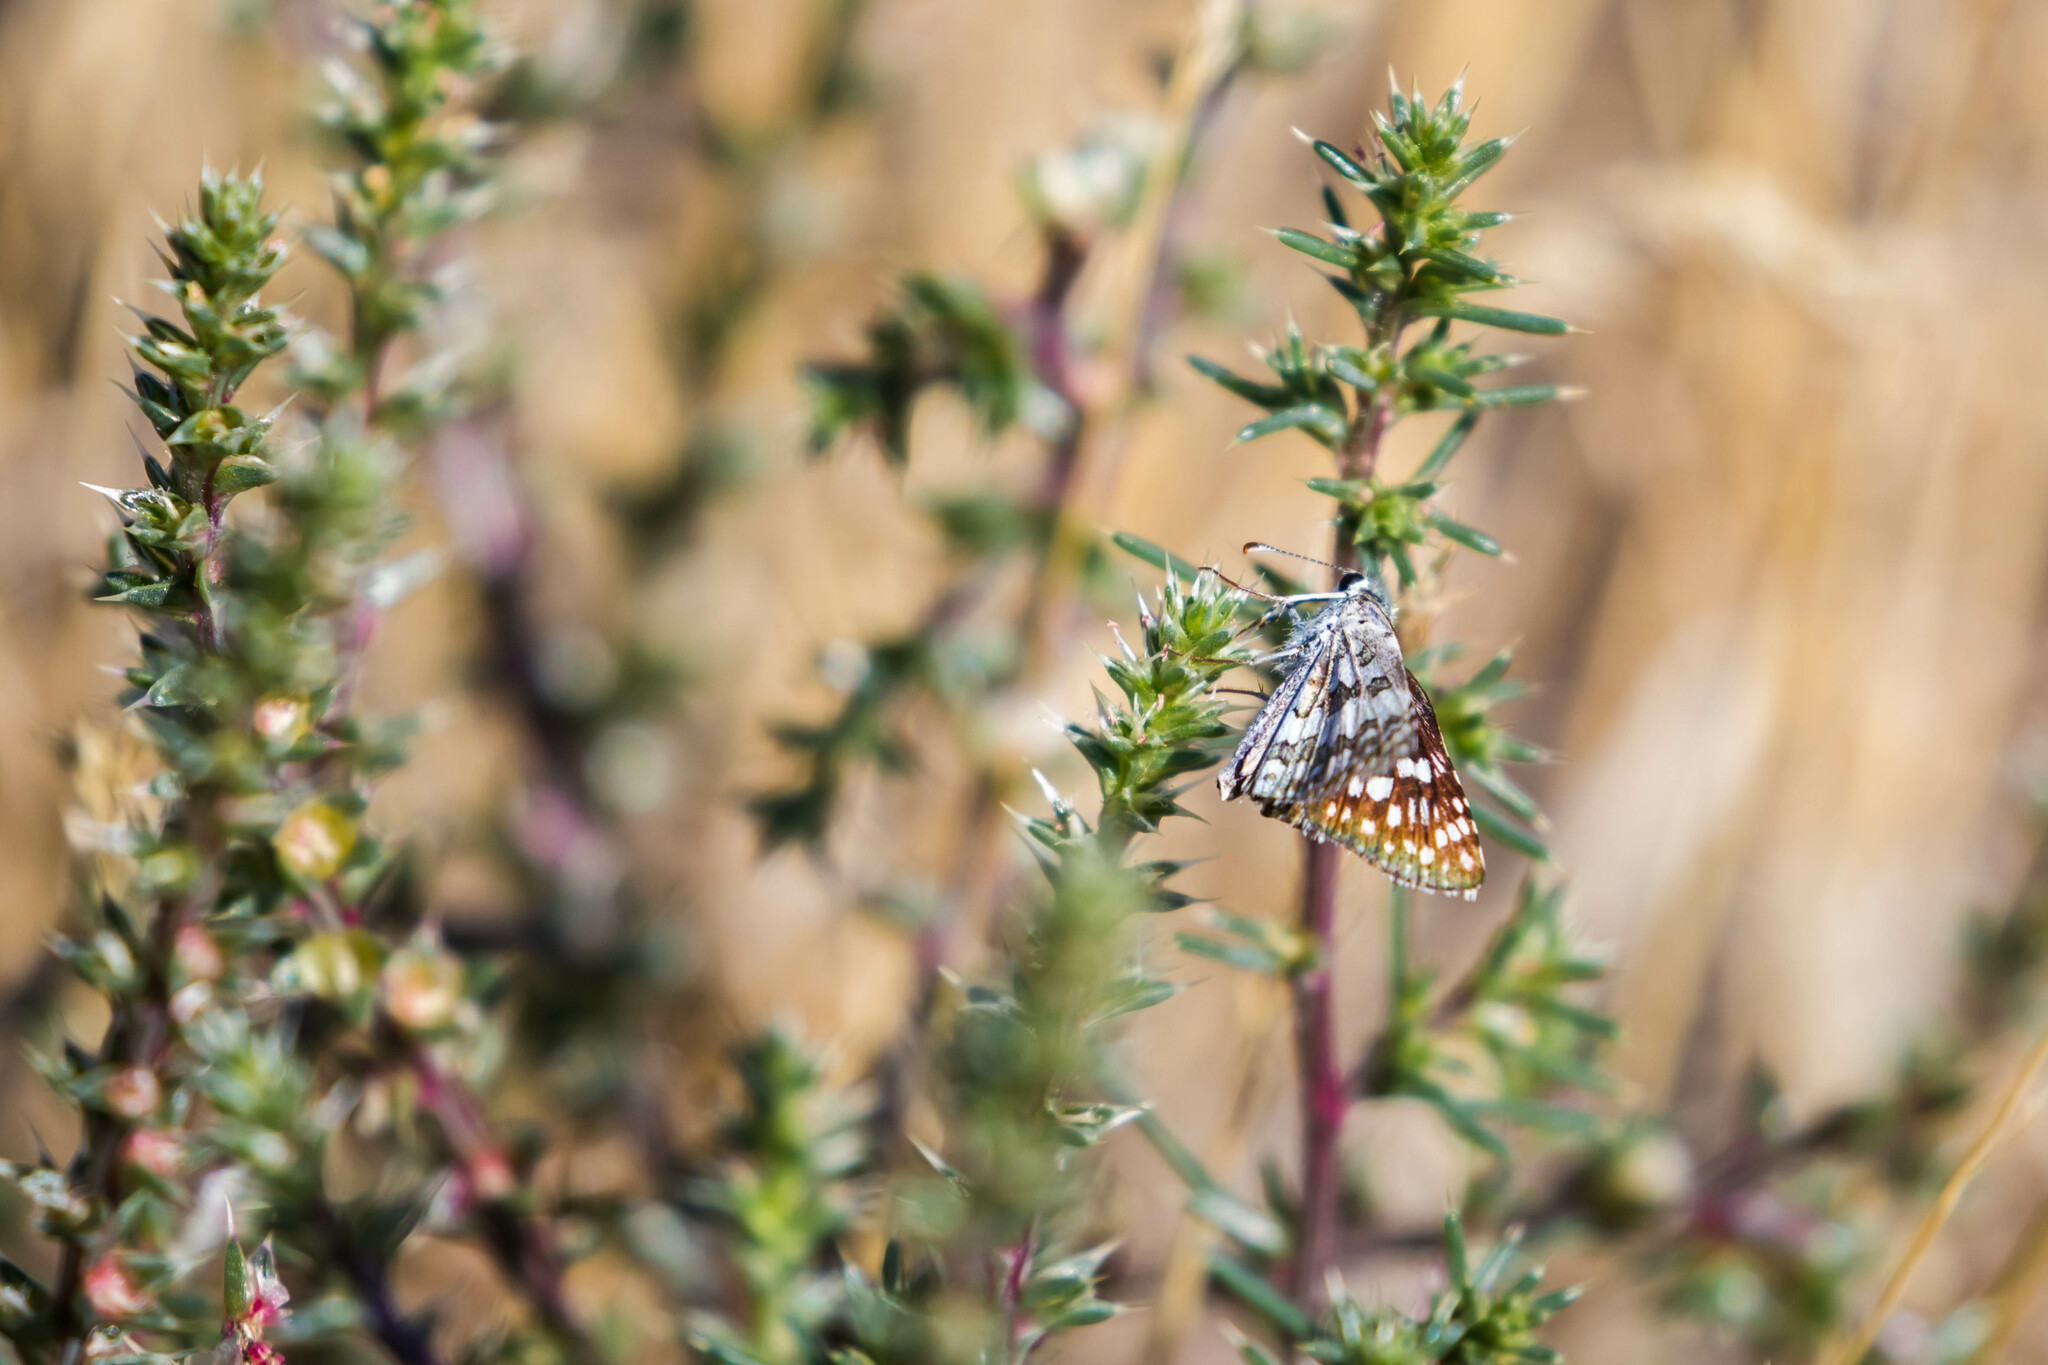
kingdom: Animalia
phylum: Arthropoda
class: Insecta
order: Lepidoptera
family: Hesperiidae
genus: Burnsius
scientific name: Burnsius communis
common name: Common checkered-skipper
